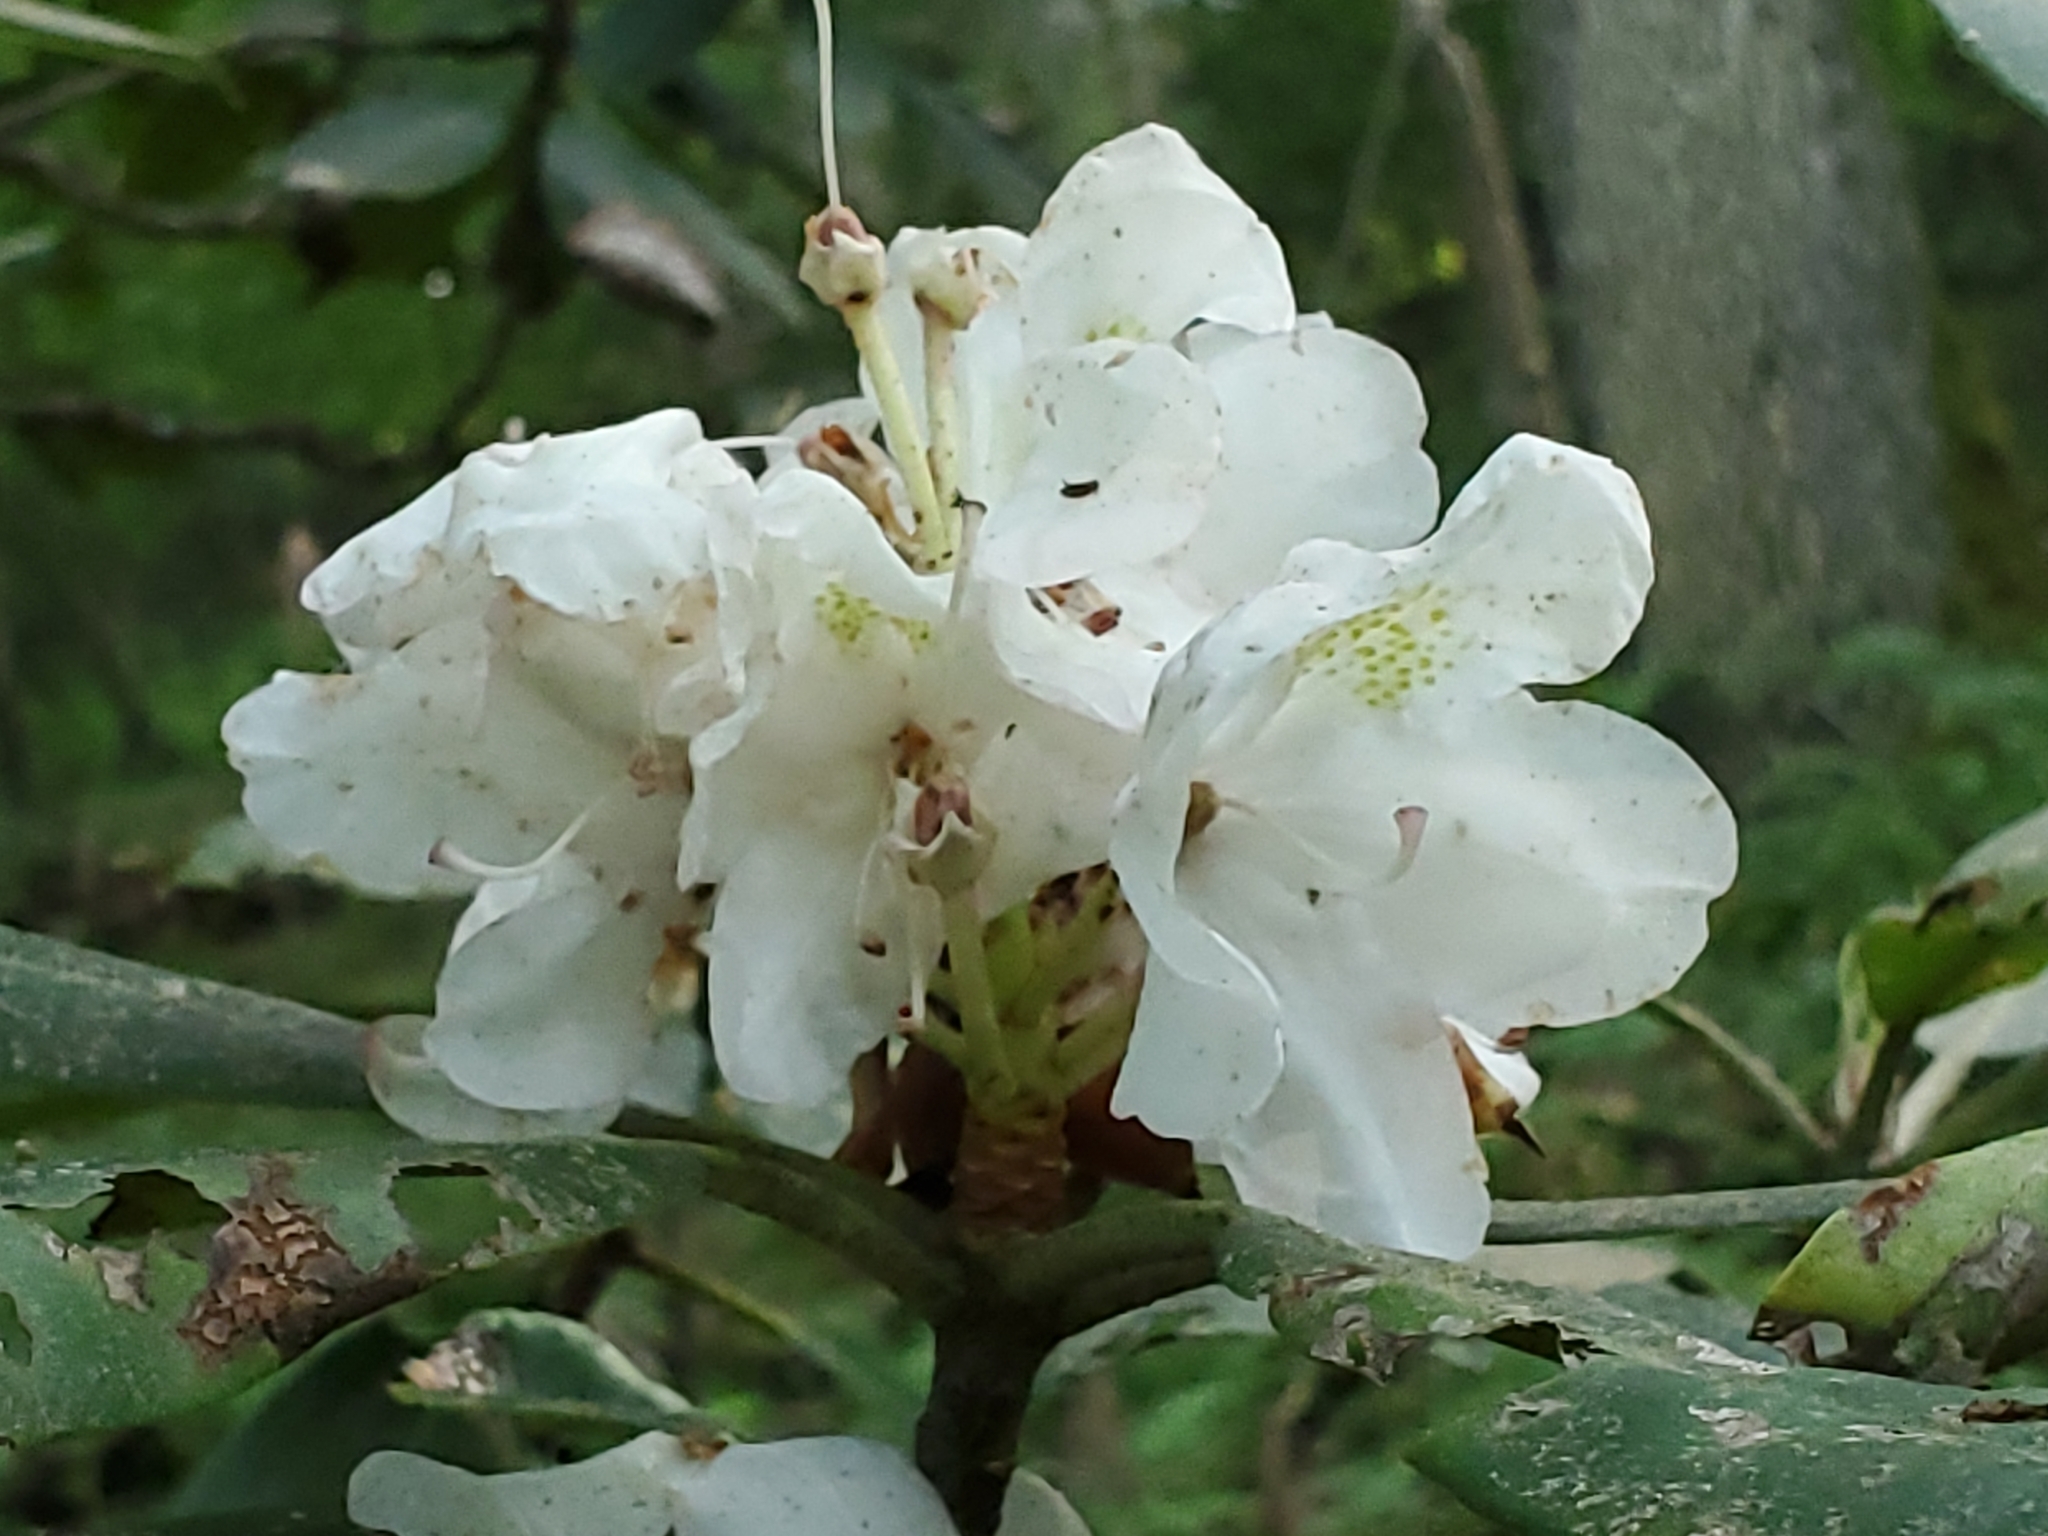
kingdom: Plantae
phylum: Tracheophyta
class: Magnoliopsida
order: Ericales
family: Ericaceae
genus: Rhododendron
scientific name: Rhododendron maximum
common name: Great rhododendron
